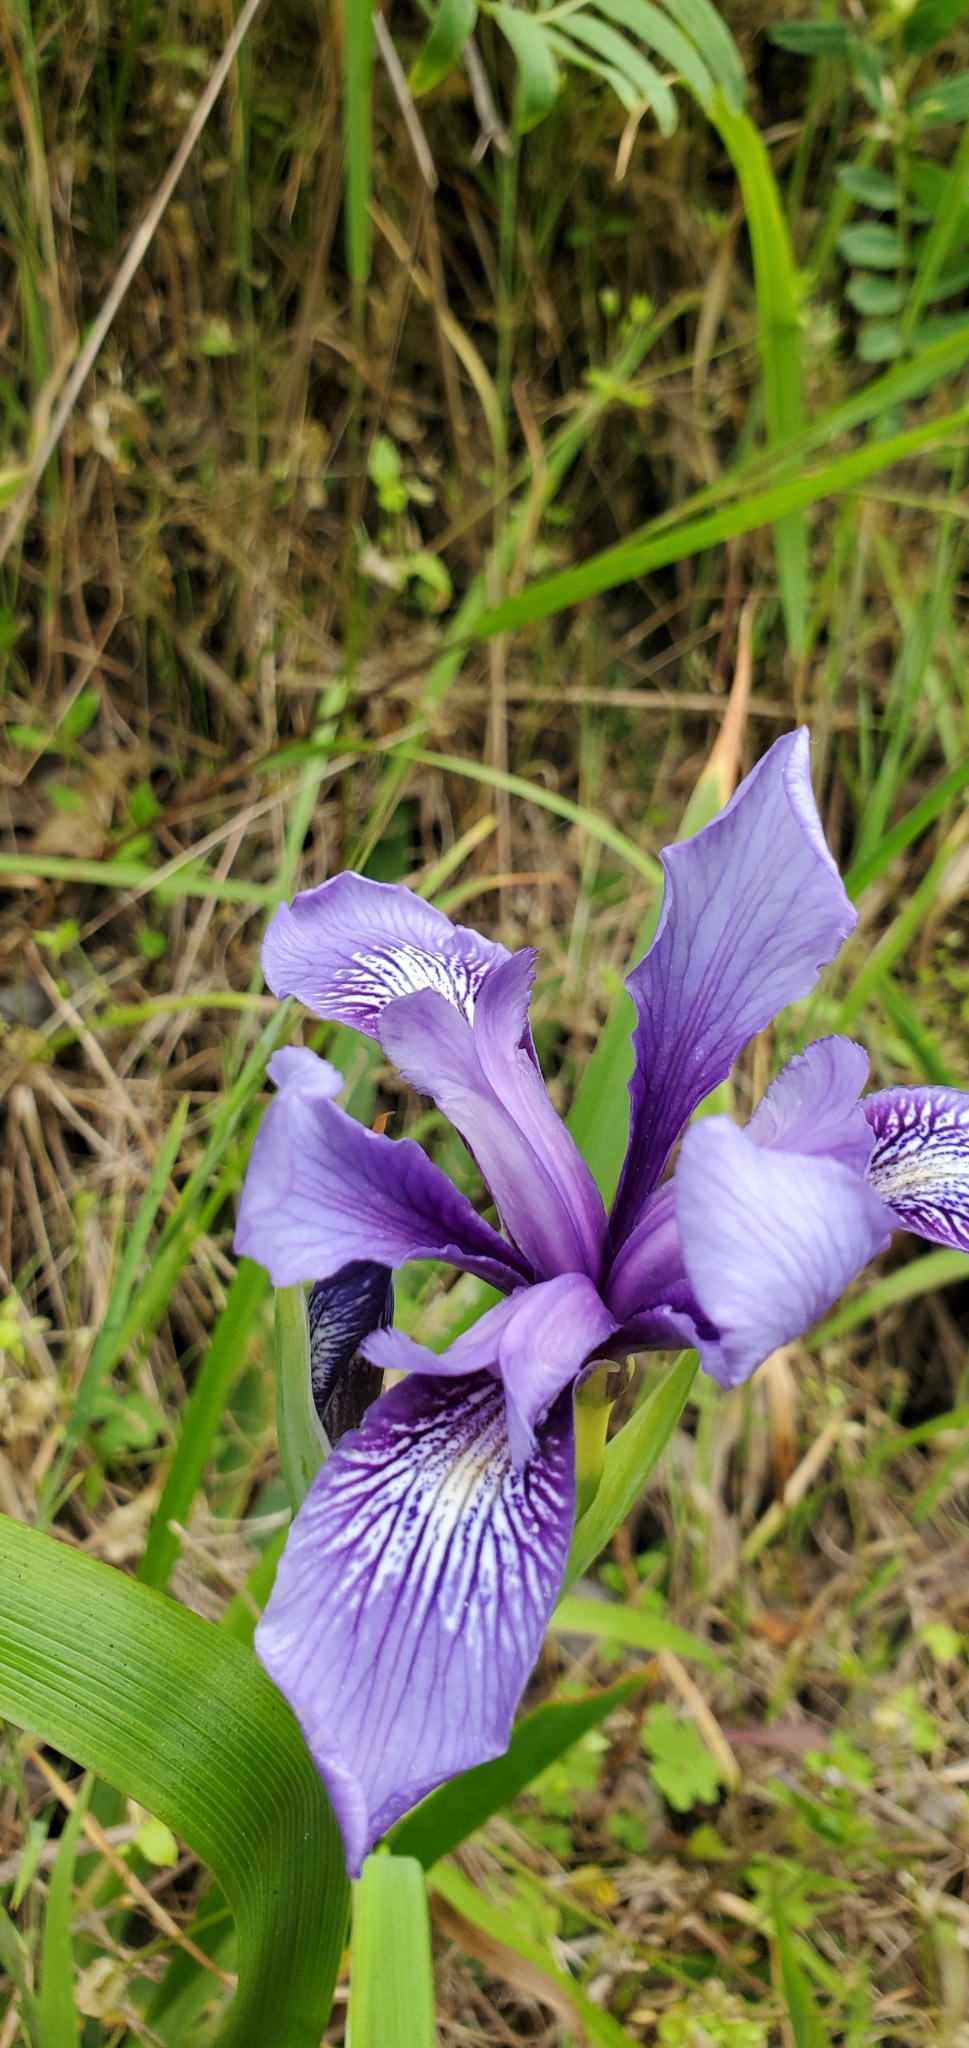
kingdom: Plantae
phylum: Tracheophyta
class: Liliopsida
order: Asparagales
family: Iridaceae
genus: Iris
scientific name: Iris douglasiana
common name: Marin iris
